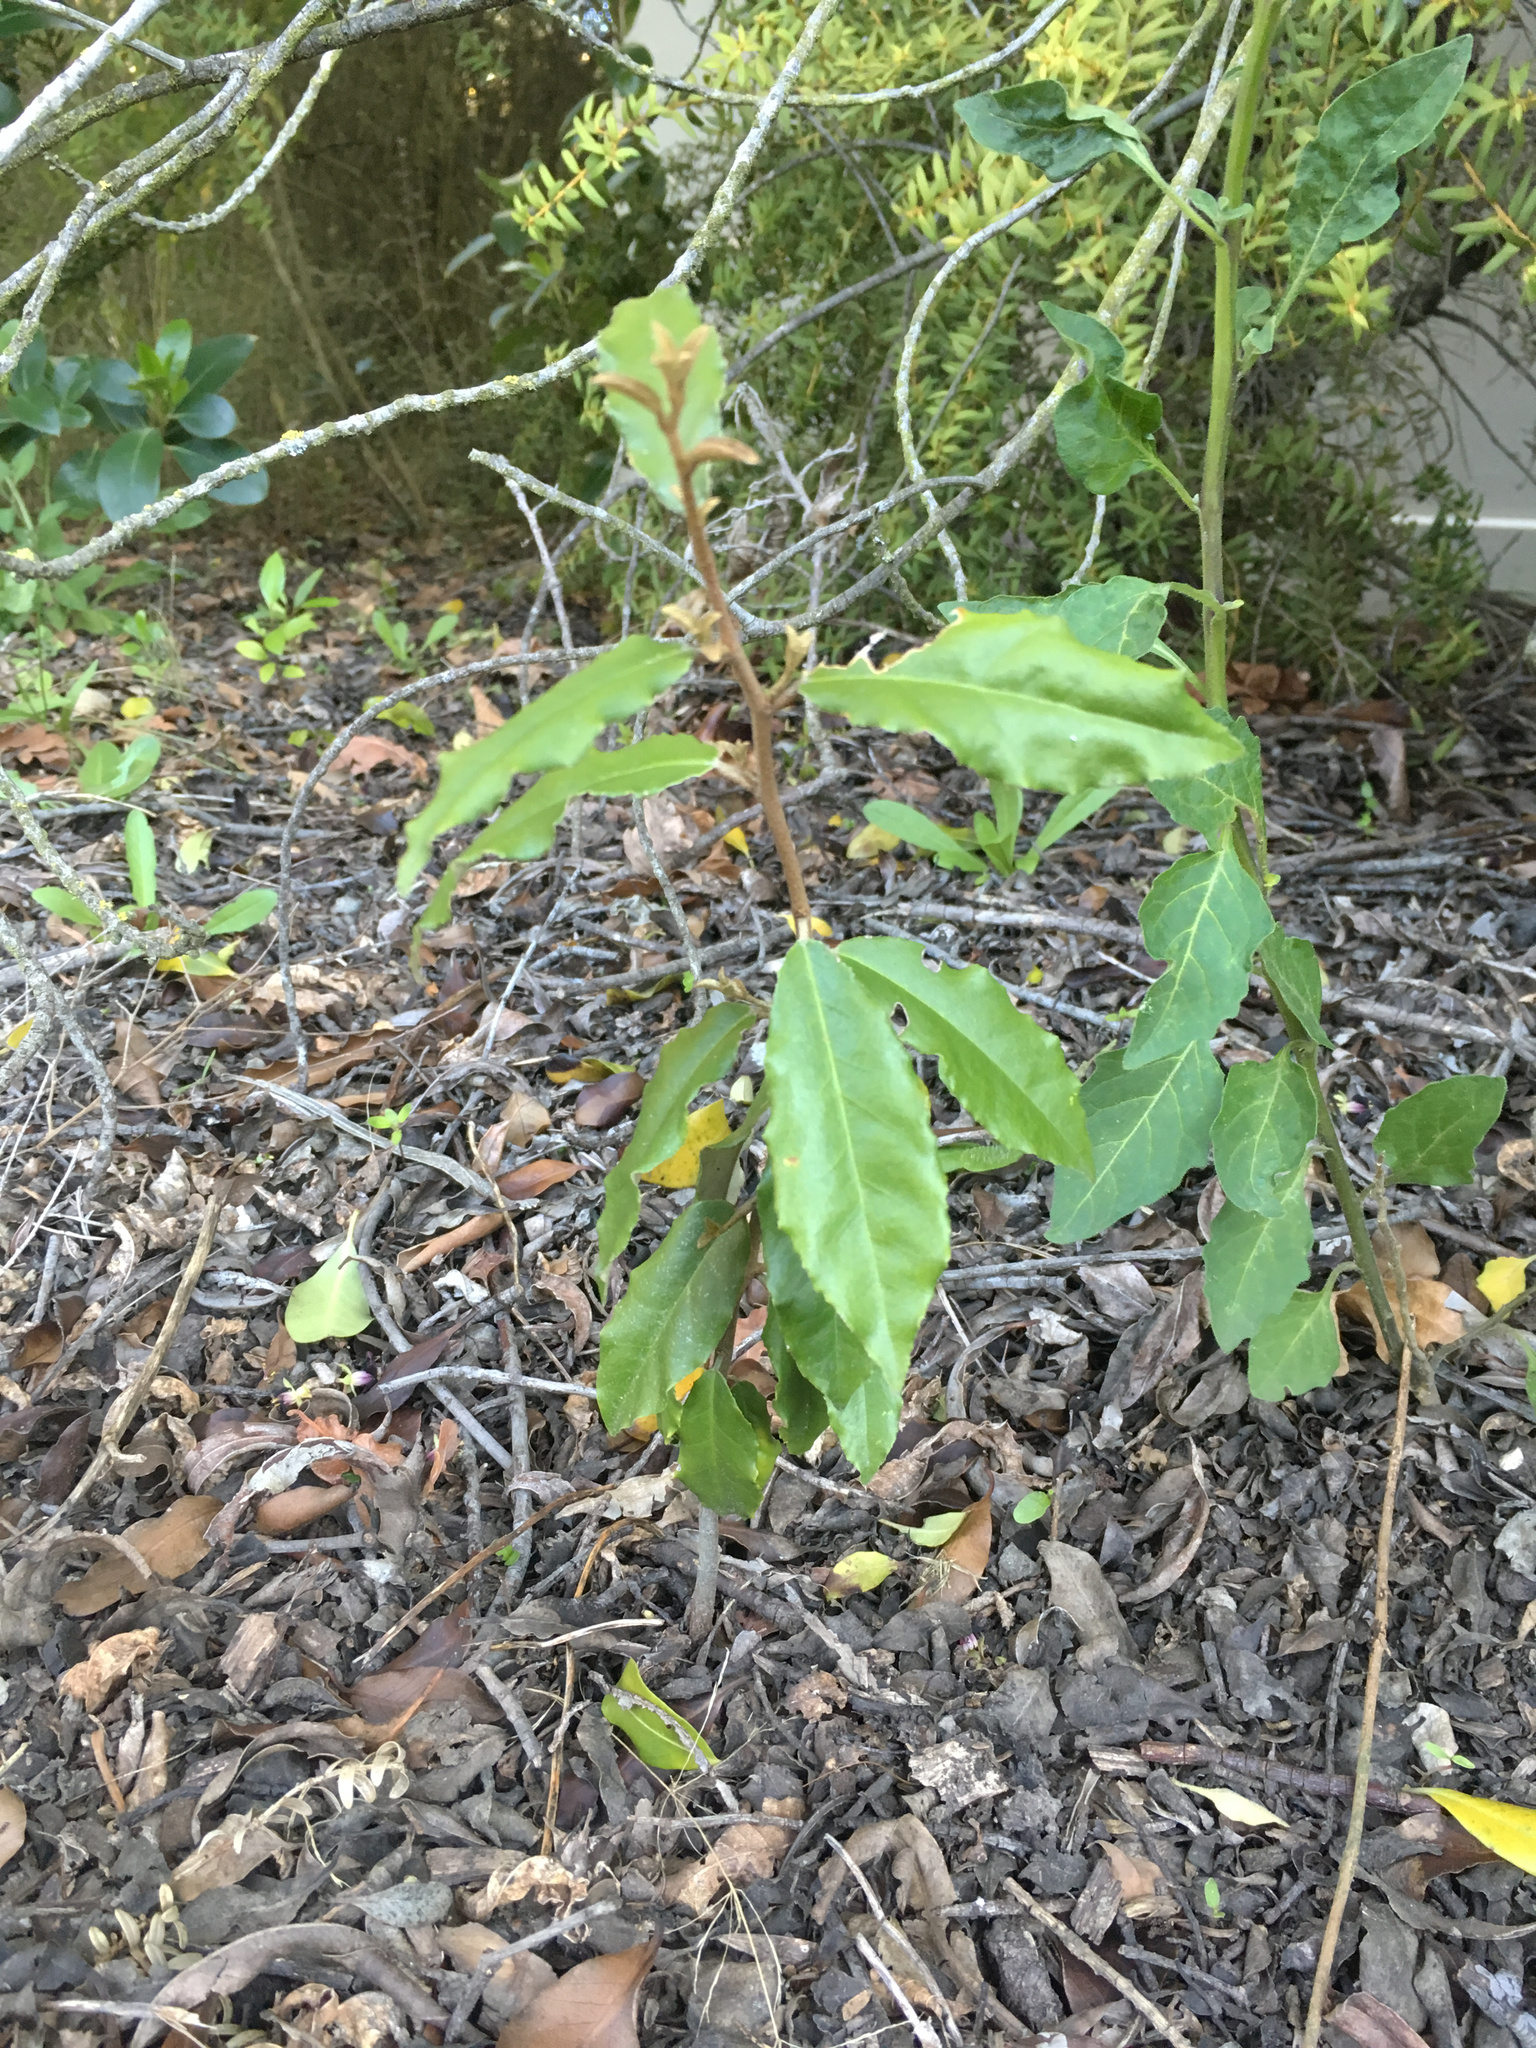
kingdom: Plantae
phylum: Tracheophyta
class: Magnoliopsida
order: Rosales
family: Elaeagnaceae
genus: Elaeagnus
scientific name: Elaeagnus reflexa
